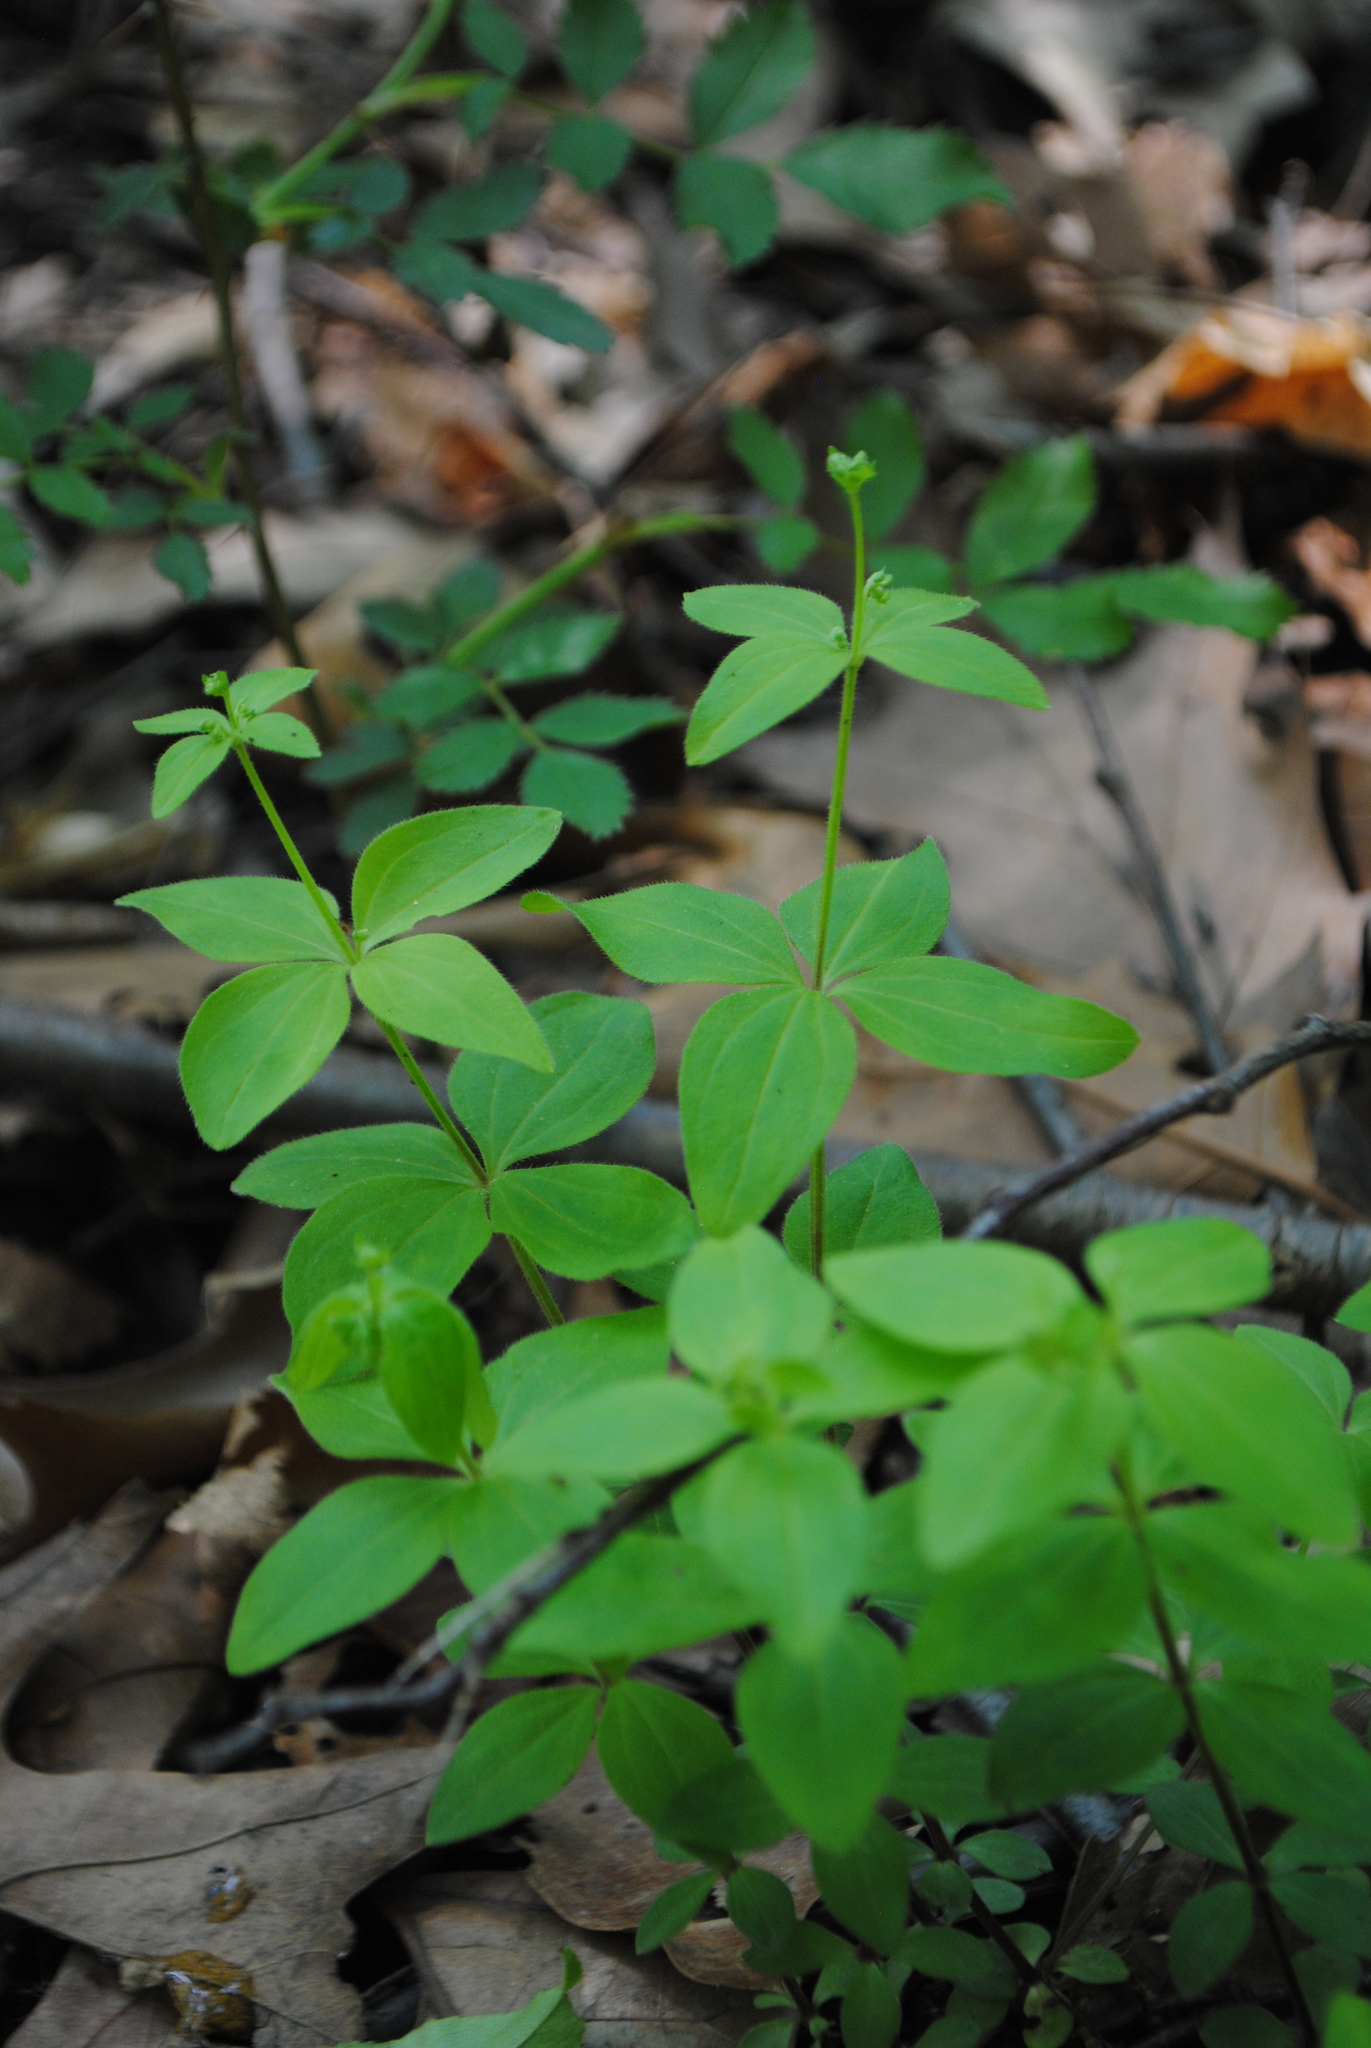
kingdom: Plantae
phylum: Tracheophyta
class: Magnoliopsida
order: Gentianales
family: Rubiaceae
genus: Galium
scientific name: Galium circaezans
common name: Forest bedstraw
